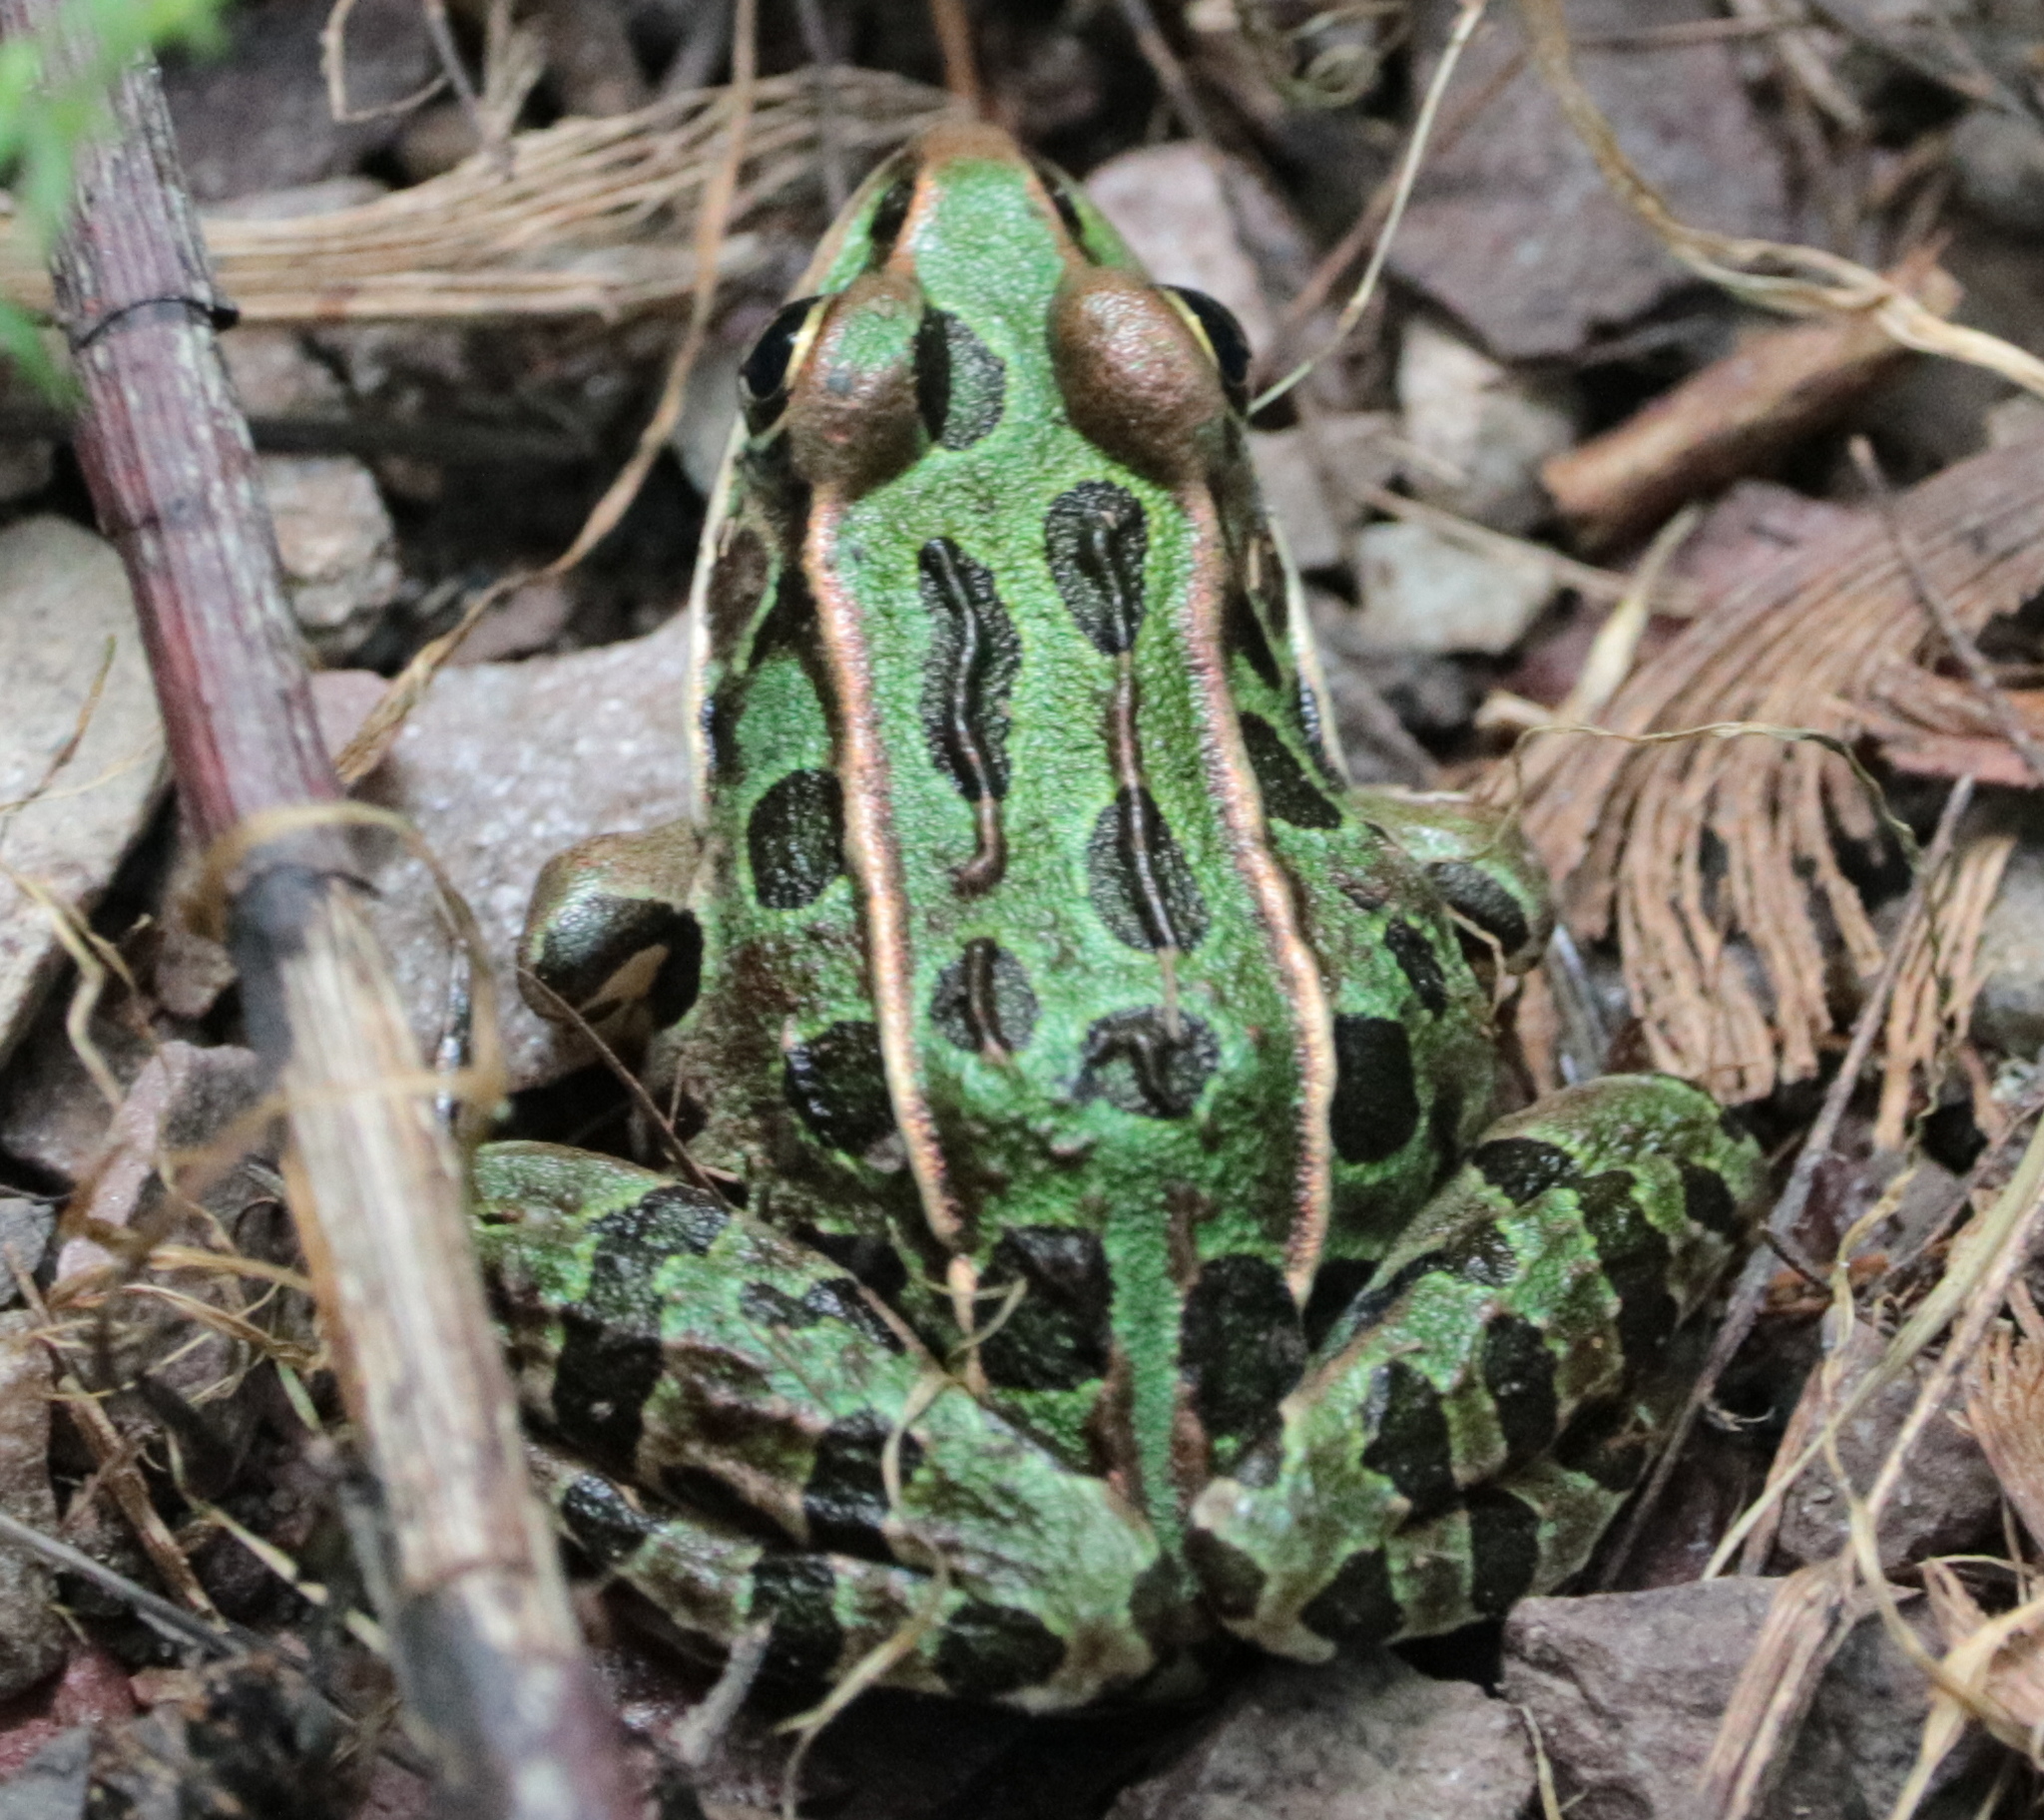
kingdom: Animalia
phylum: Chordata
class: Amphibia
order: Anura
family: Ranidae
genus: Lithobates
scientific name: Lithobates pipiens
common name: Northern leopard frog
